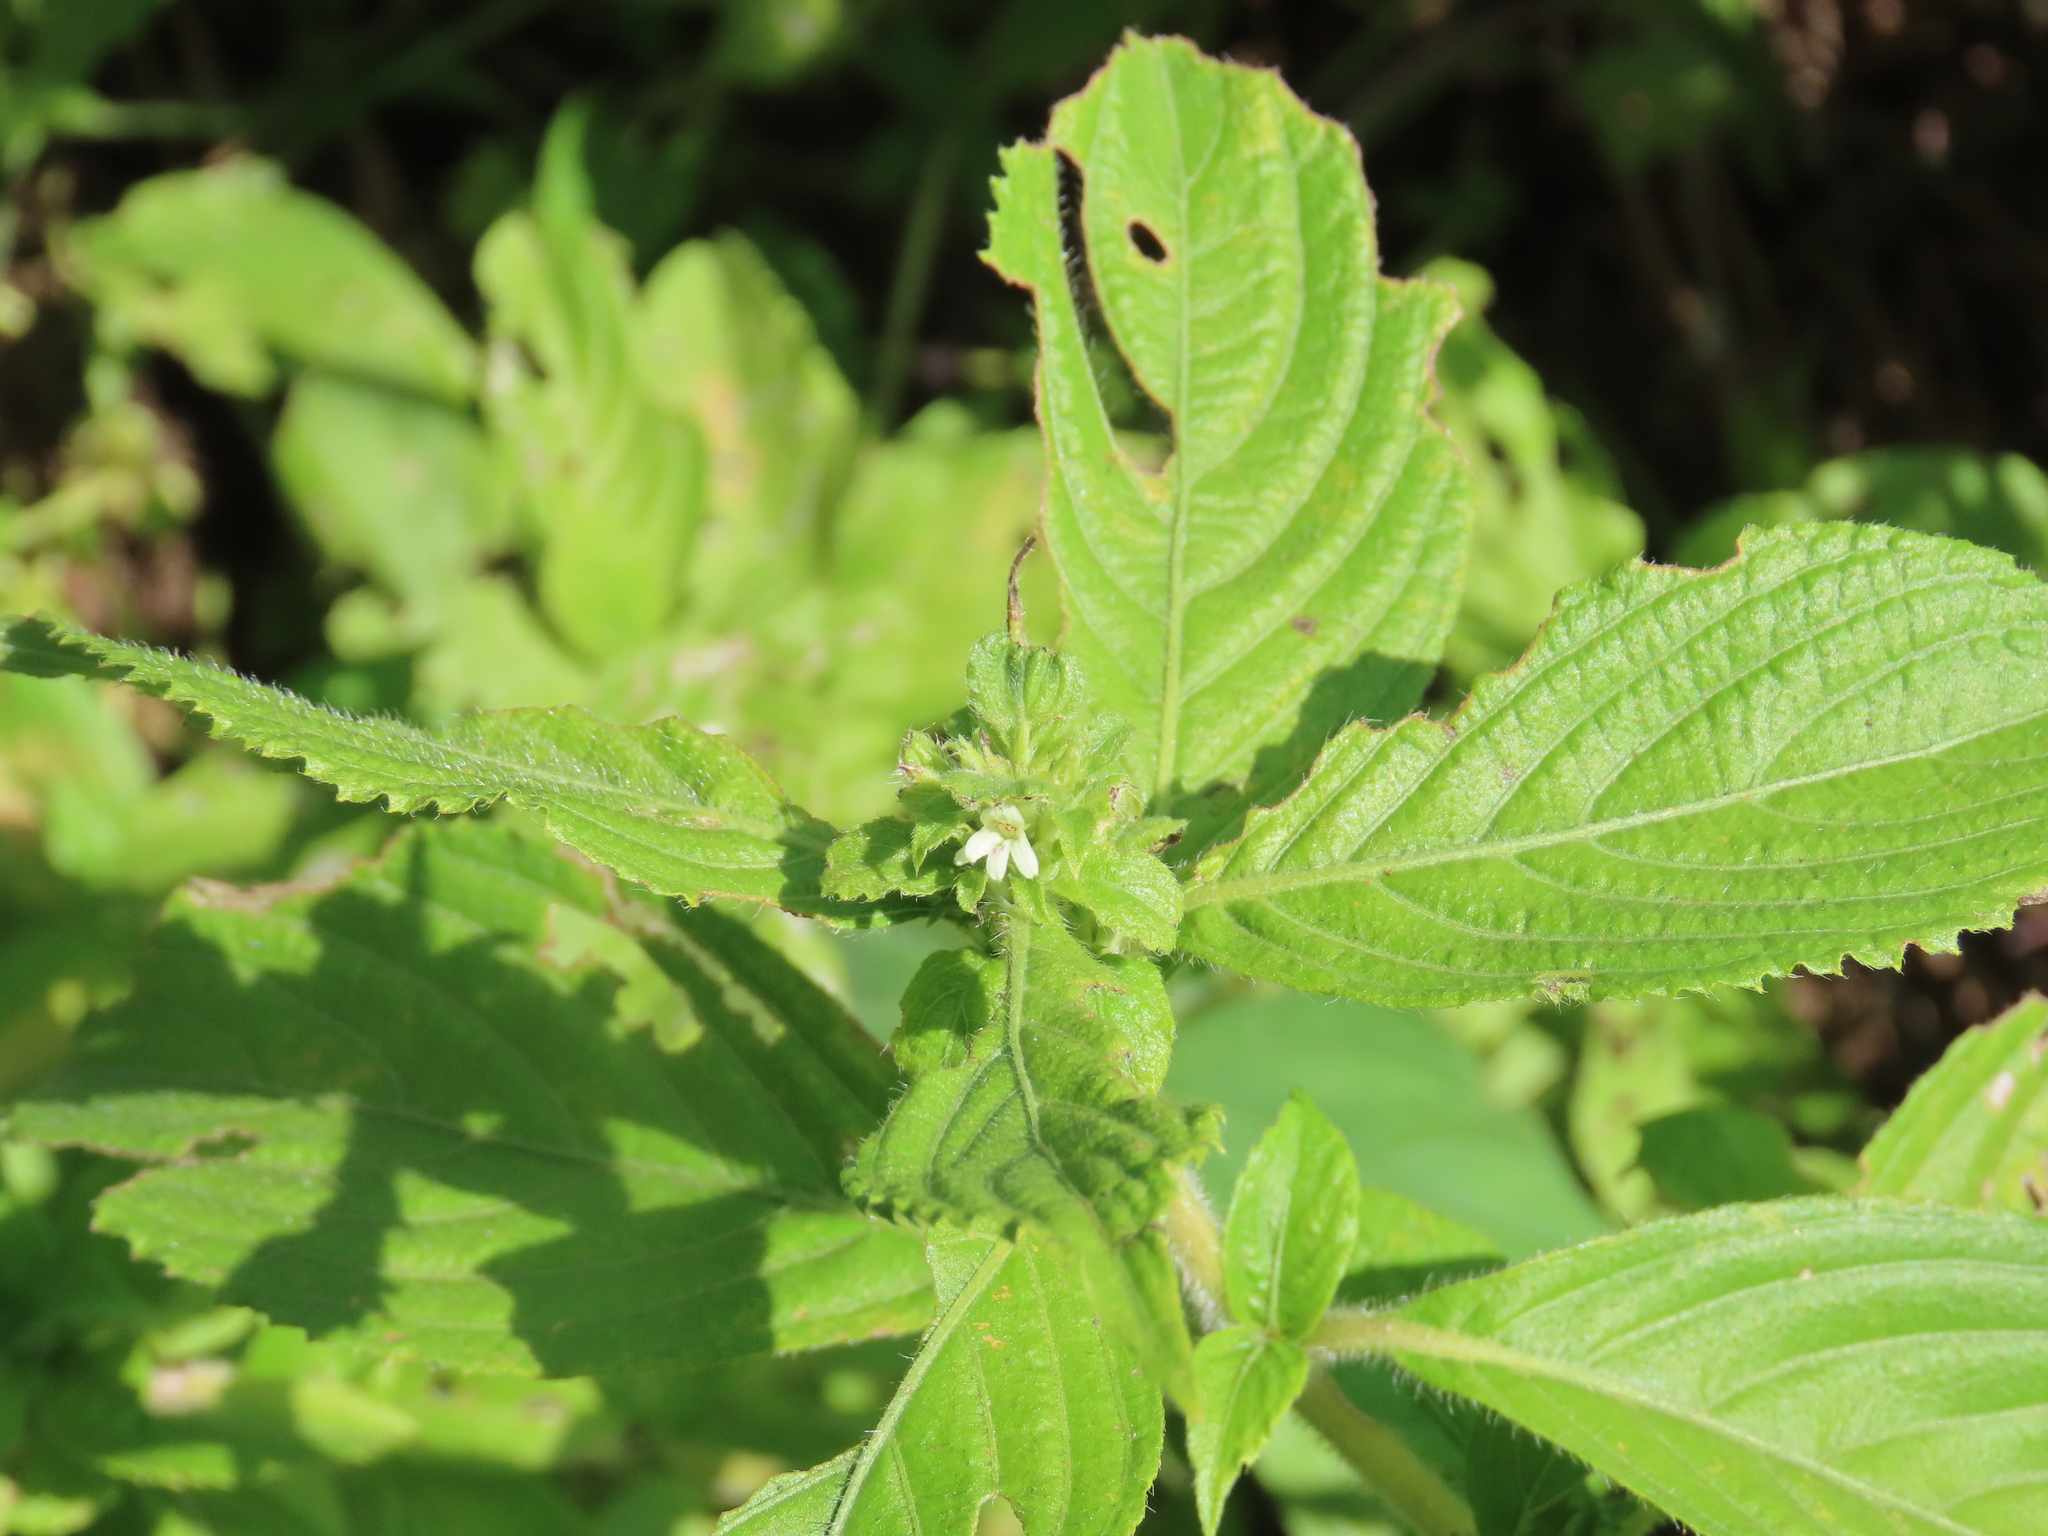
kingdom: Plantae
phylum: Tracheophyta
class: Magnoliopsida
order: Lamiales
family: Acanthaceae
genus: Duosperma
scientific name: Duosperma crenatum
